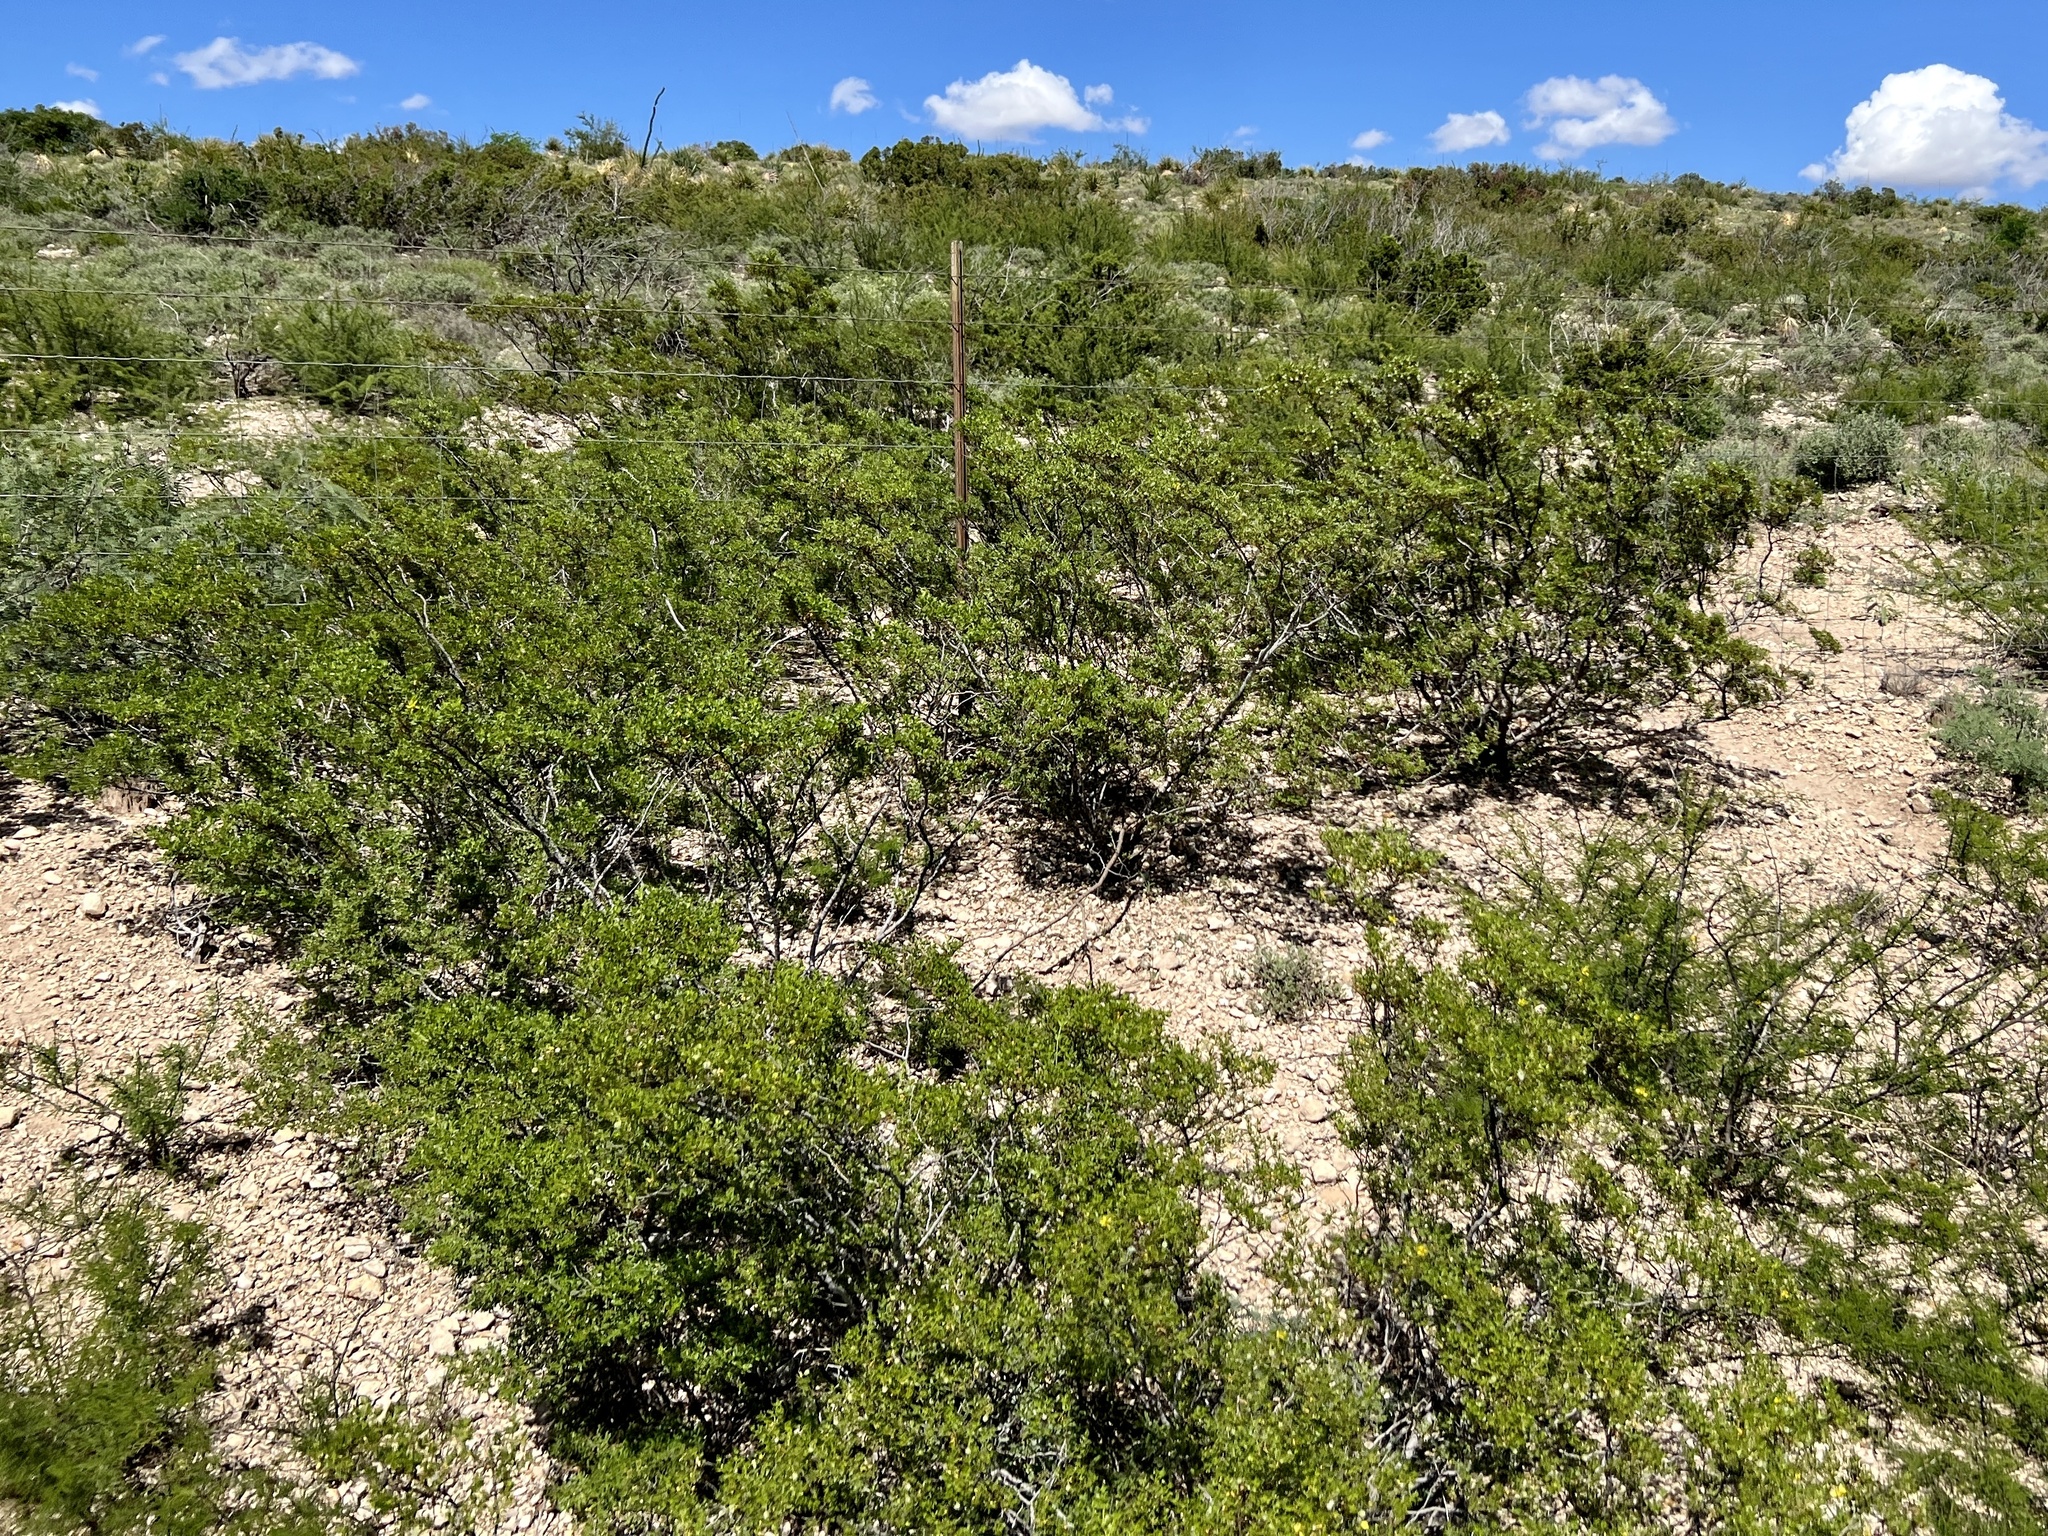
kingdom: Plantae
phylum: Tracheophyta
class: Magnoliopsida
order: Zygophyllales
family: Zygophyllaceae
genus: Larrea
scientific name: Larrea tridentata
